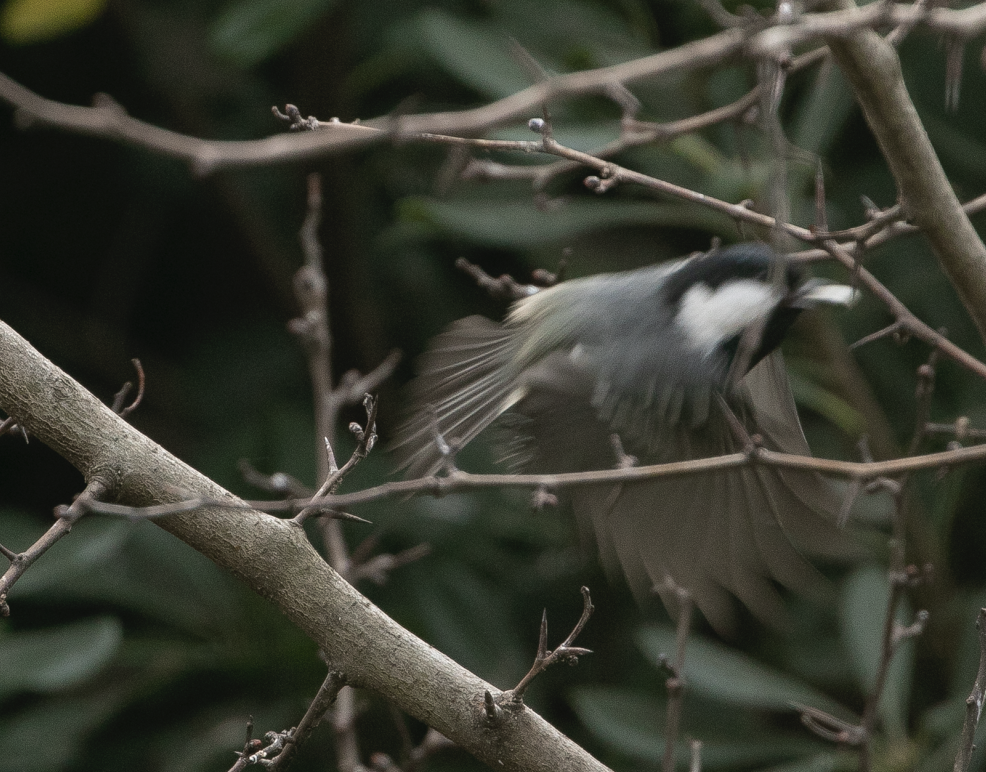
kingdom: Animalia
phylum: Chordata
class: Aves
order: Passeriformes
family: Paridae
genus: Periparus
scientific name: Periparus ater
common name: Coal tit
